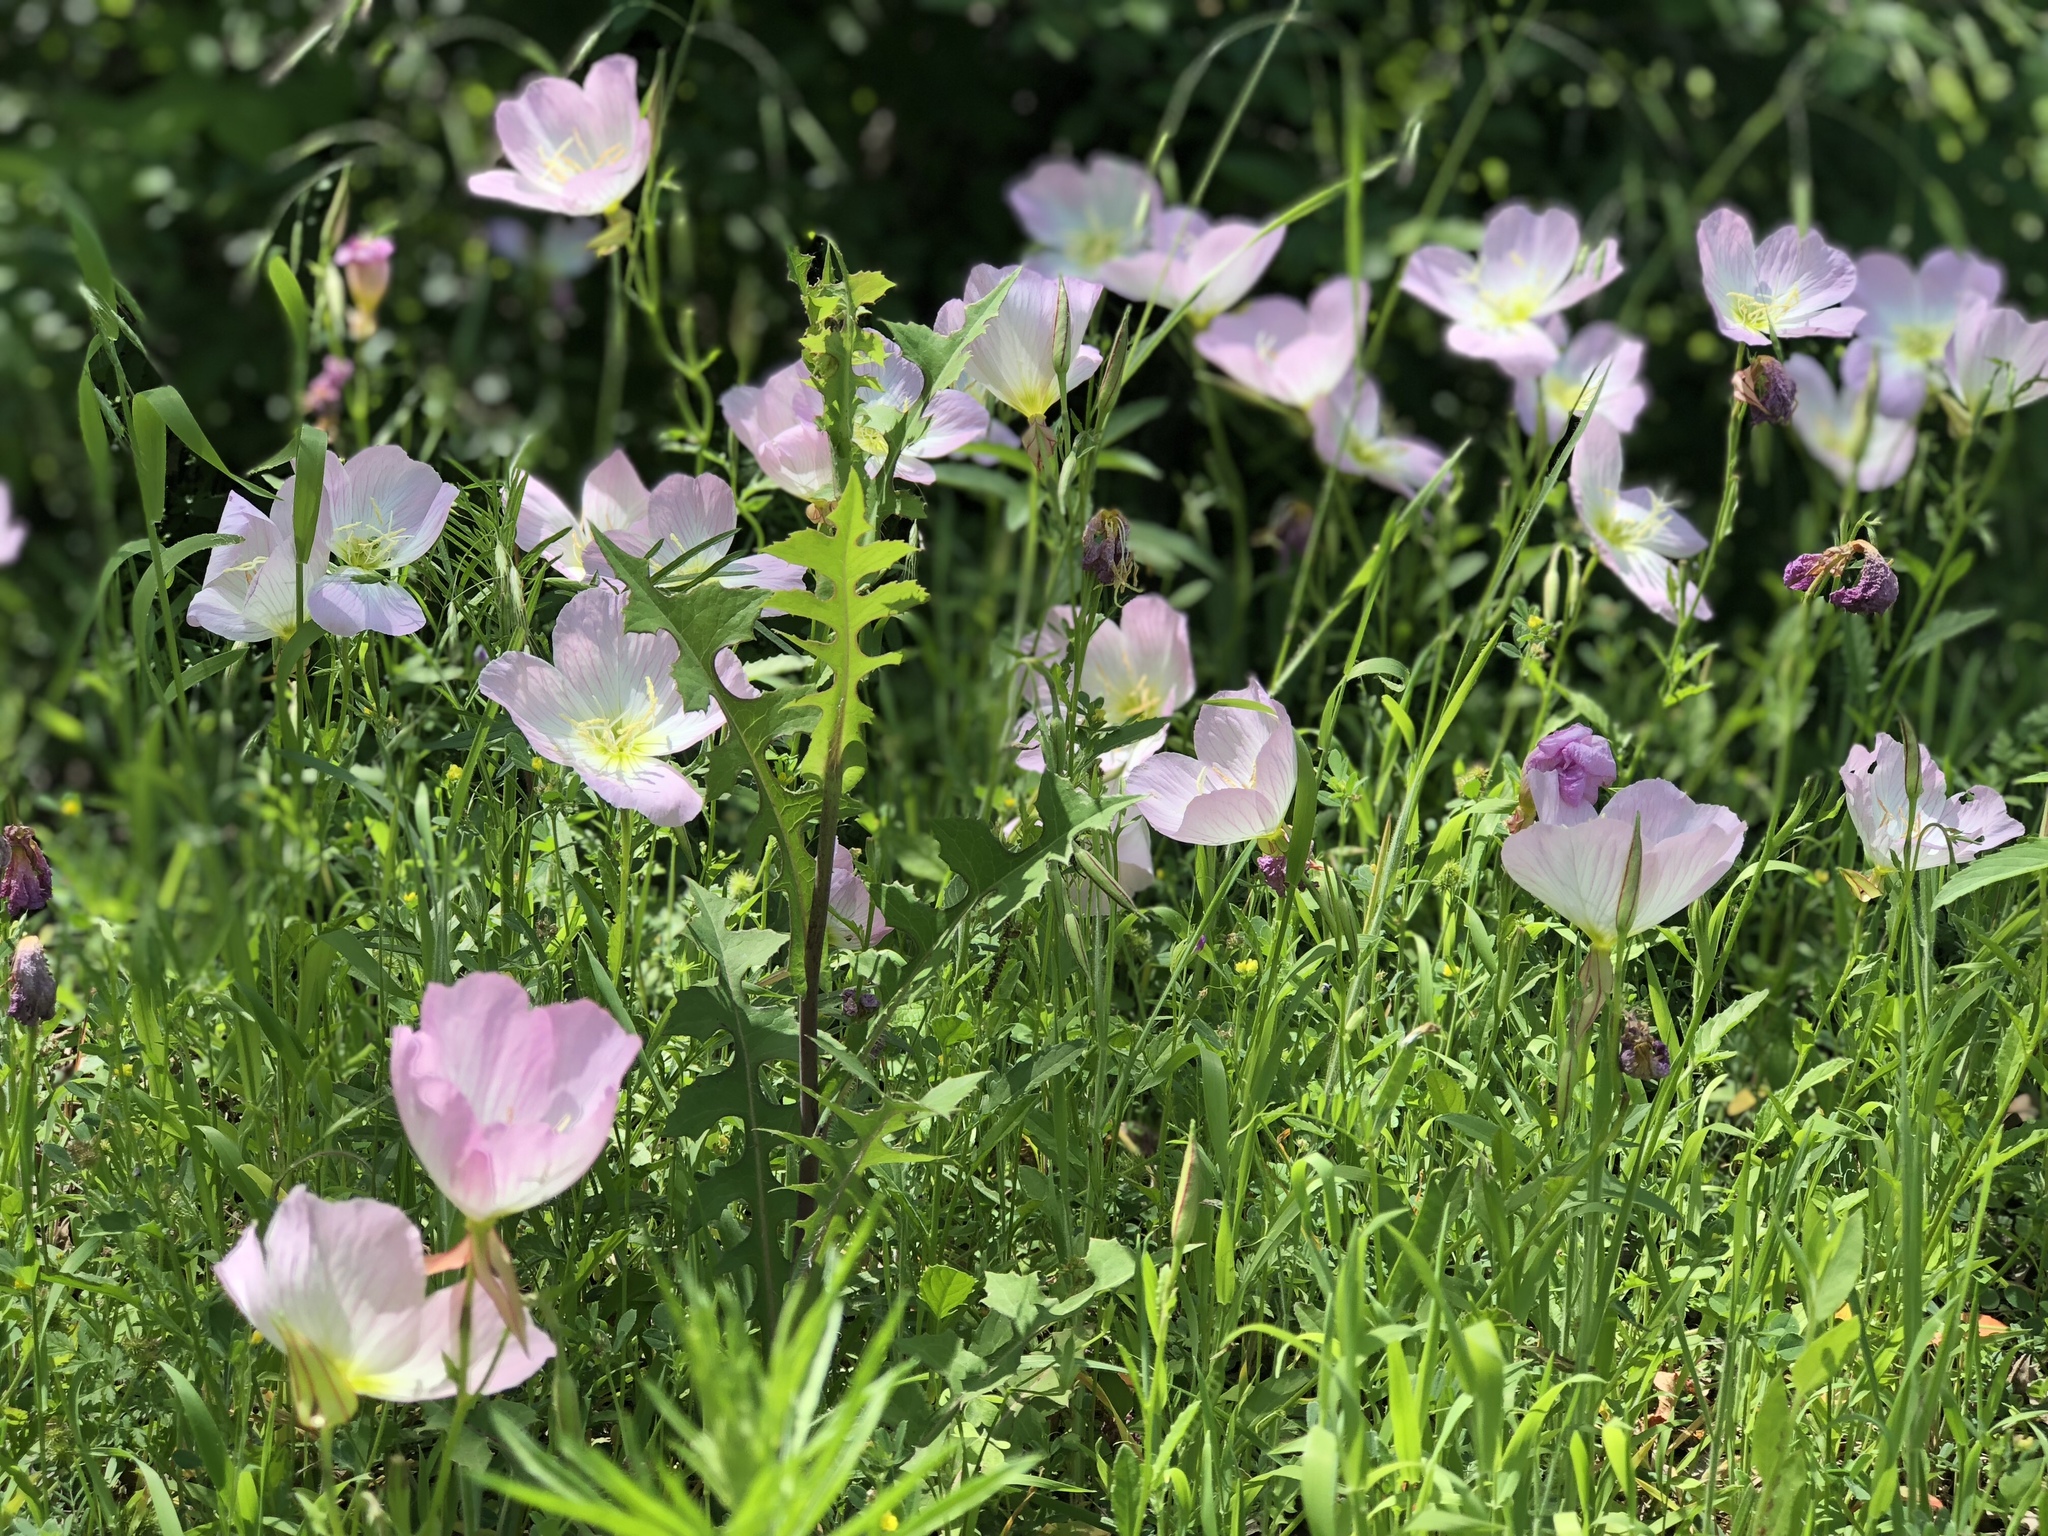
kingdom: Plantae
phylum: Tracheophyta
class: Magnoliopsida
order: Myrtales
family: Onagraceae
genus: Oenothera
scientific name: Oenothera speciosa
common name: White evening-primrose
